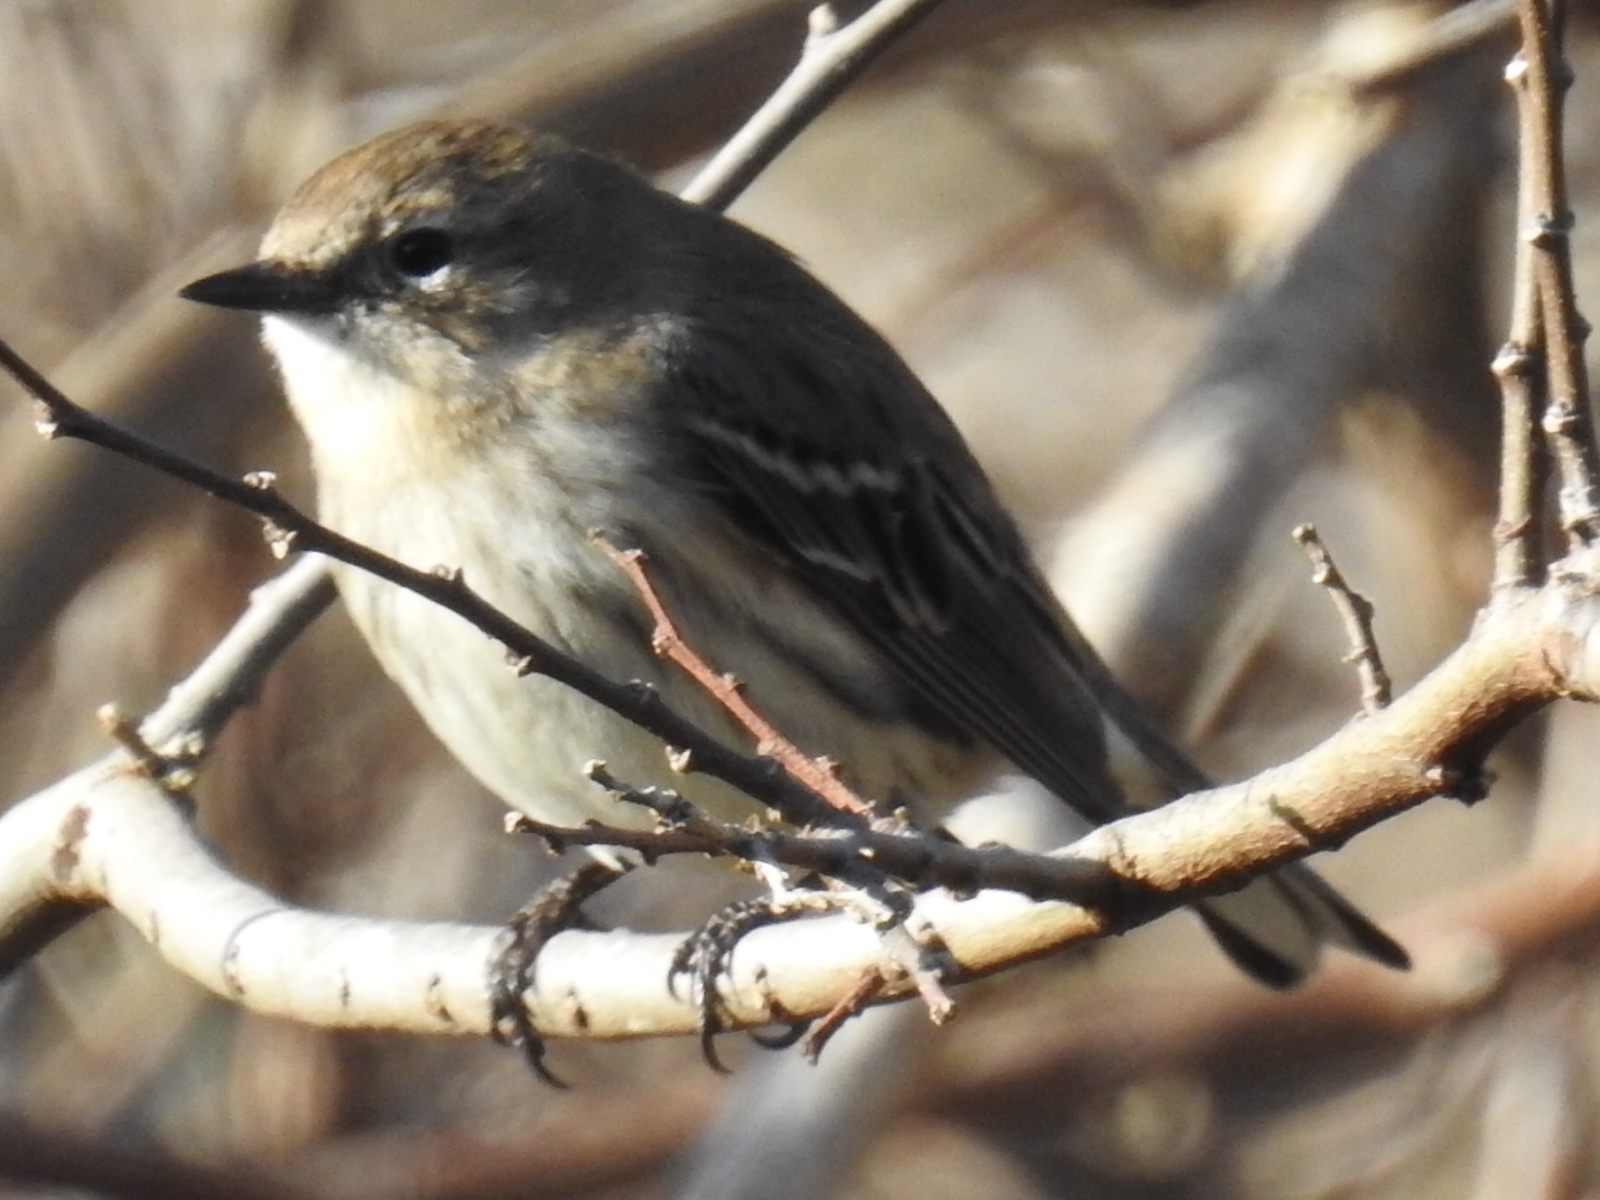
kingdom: Animalia
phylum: Chordata
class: Aves
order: Passeriformes
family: Parulidae
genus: Setophaga
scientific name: Setophaga coronata
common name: Myrtle warbler
